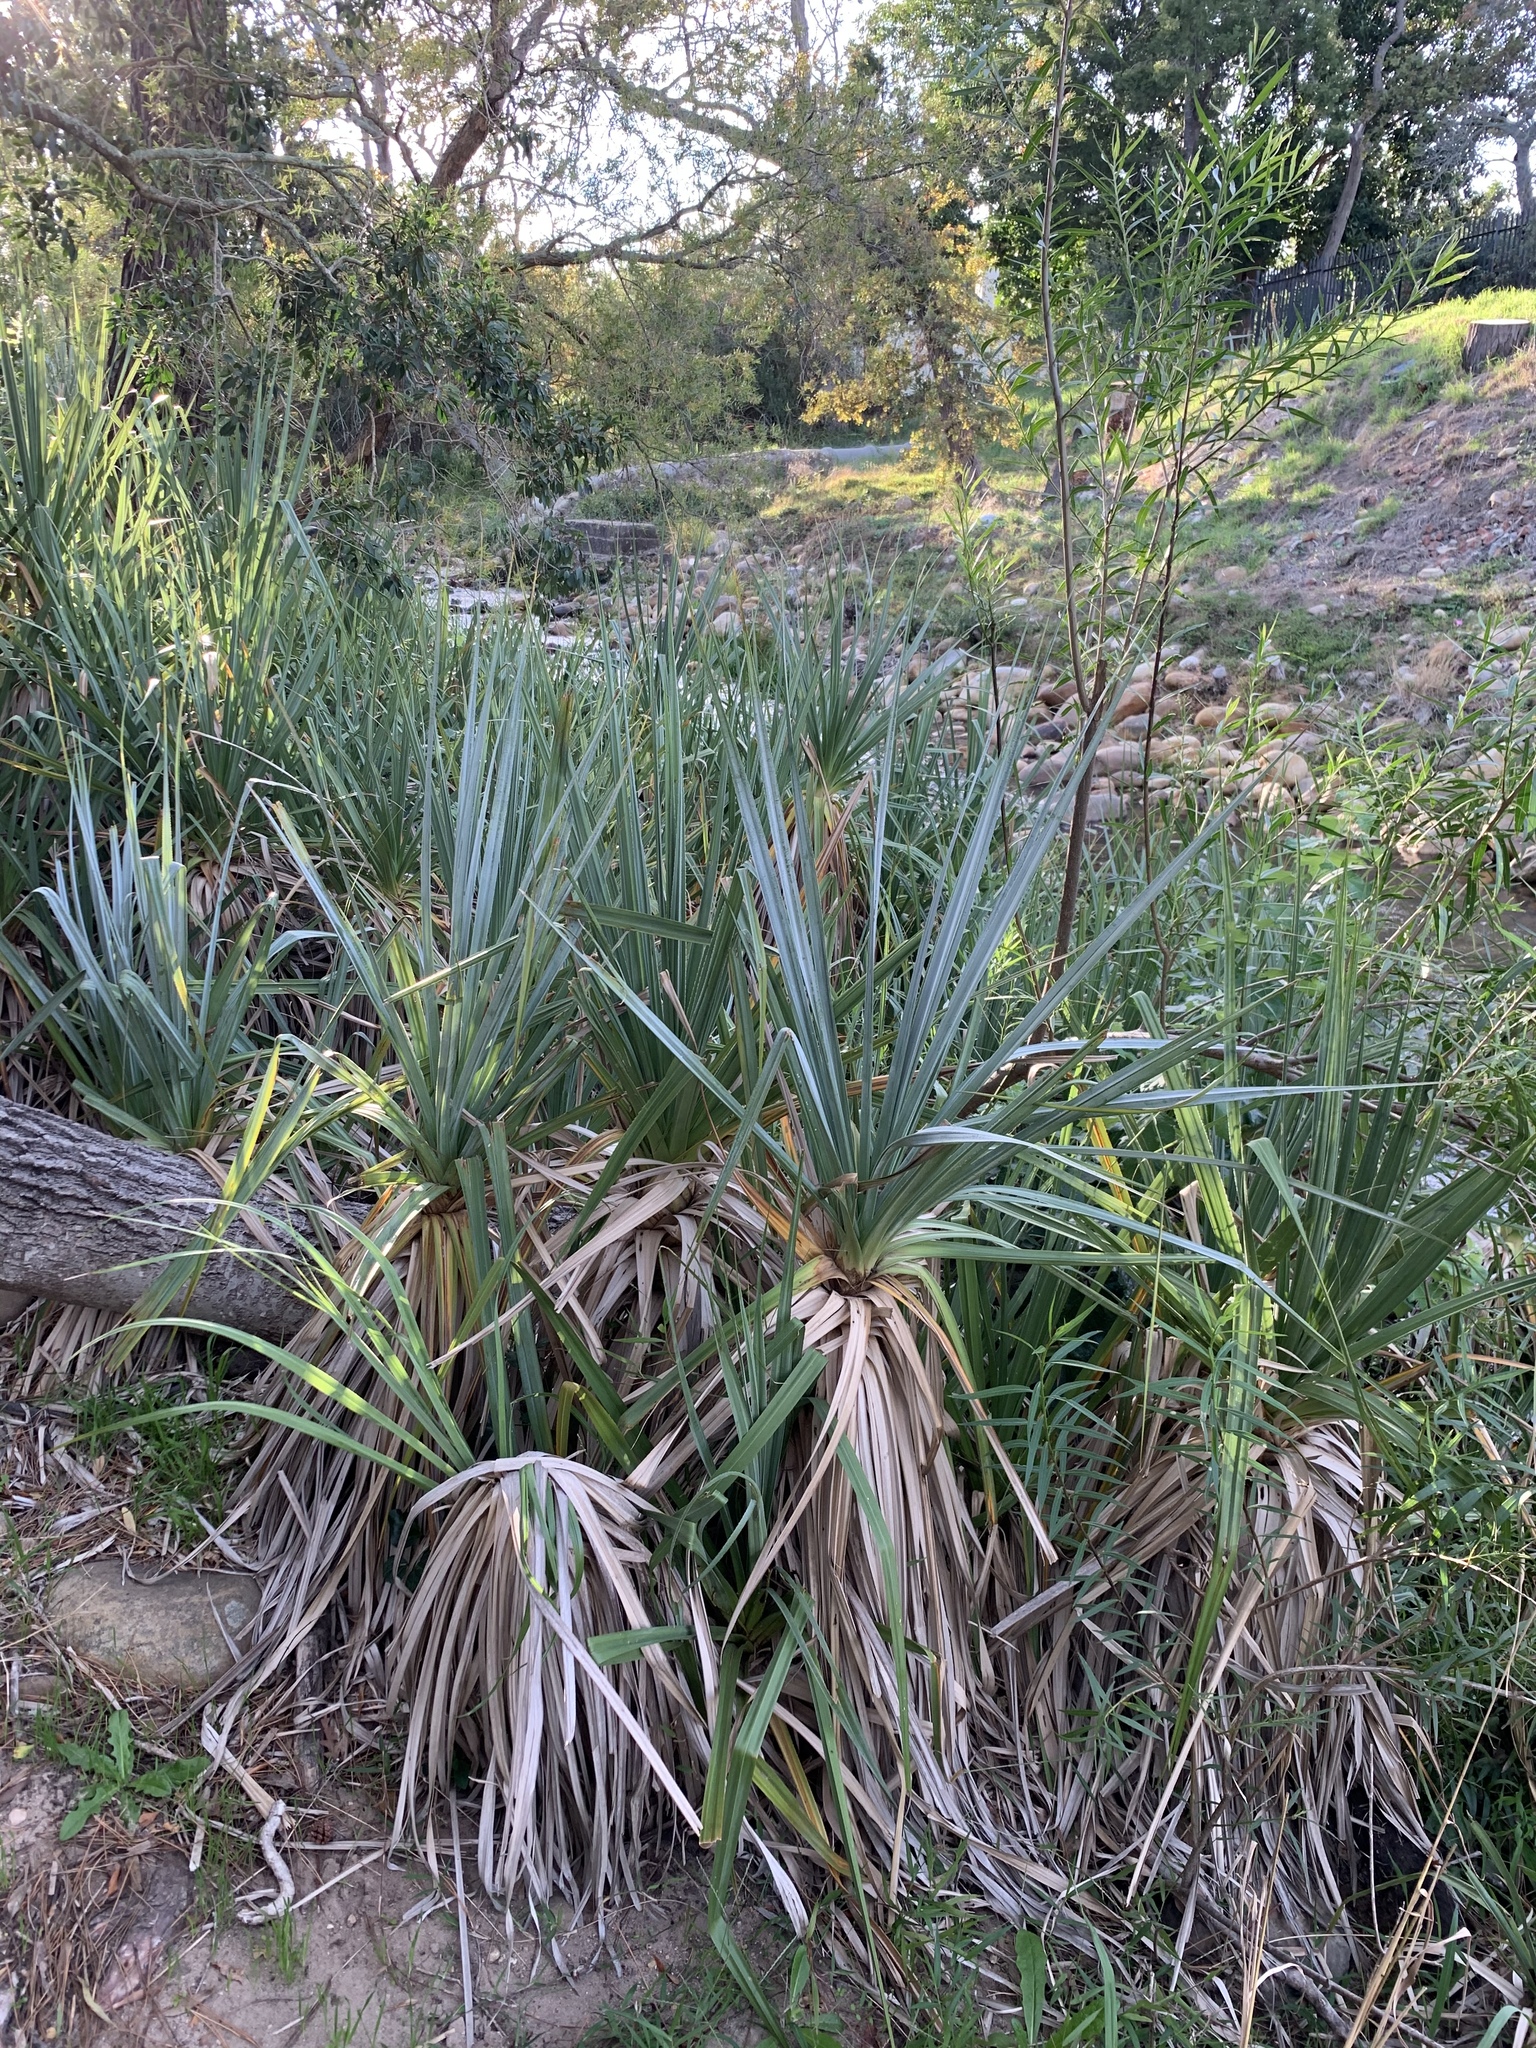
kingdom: Plantae
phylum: Tracheophyta
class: Liliopsida
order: Poales
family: Thurniaceae
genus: Prionium
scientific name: Prionium serratum
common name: Palmiet
